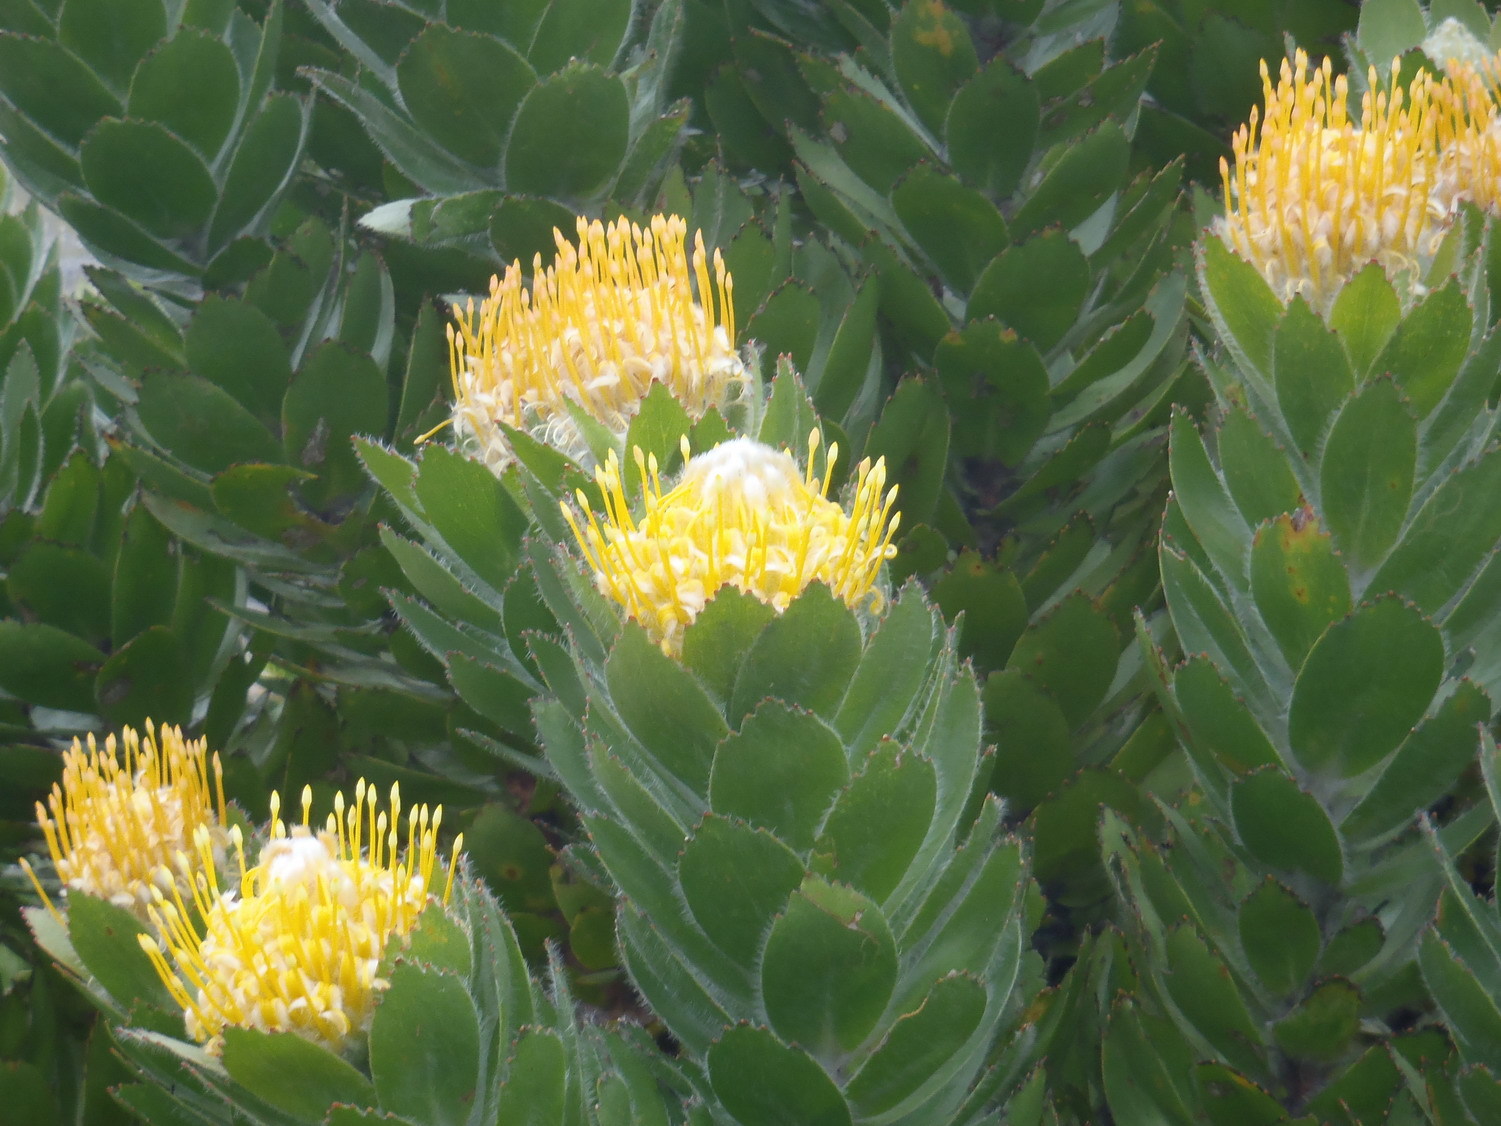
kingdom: Plantae
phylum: Tracheophyta
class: Magnoliopsida
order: Proteales
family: Proteaceae
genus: Leucospermum
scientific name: Leucospermum conocarpodendron
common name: Tree pincushion
